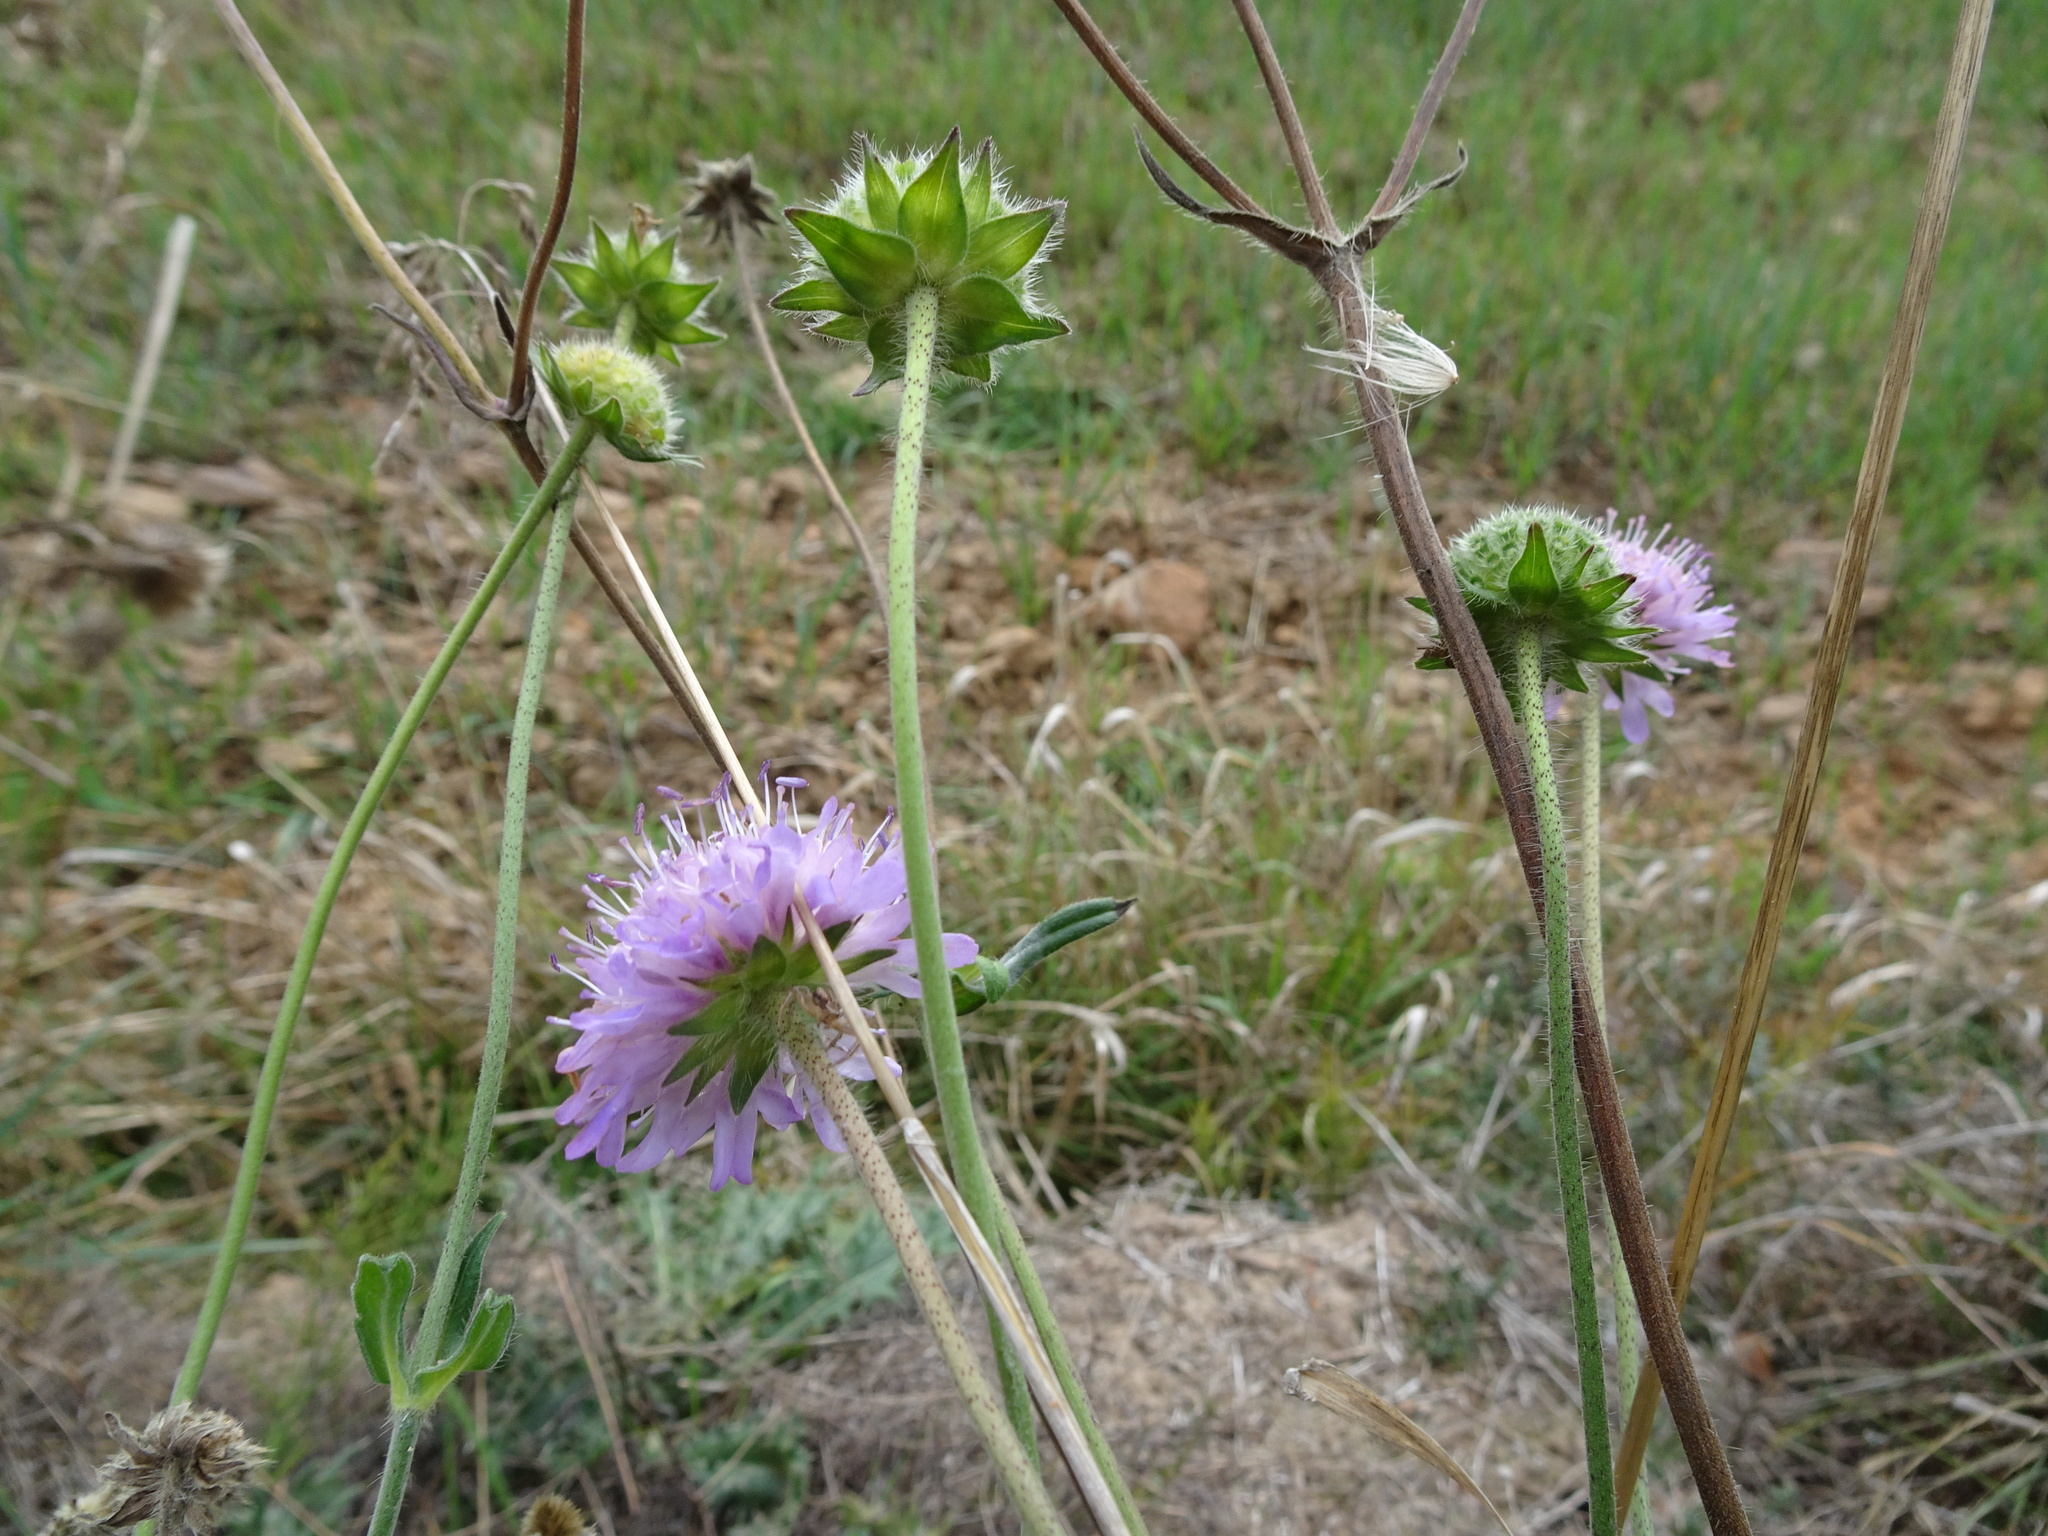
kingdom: Plantae
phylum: Tracheophyta
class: Magnoliopsida
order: Dipsacales
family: Caprifoliaceae
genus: Knautia
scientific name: Knautia arvensis
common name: Field scabiosa
